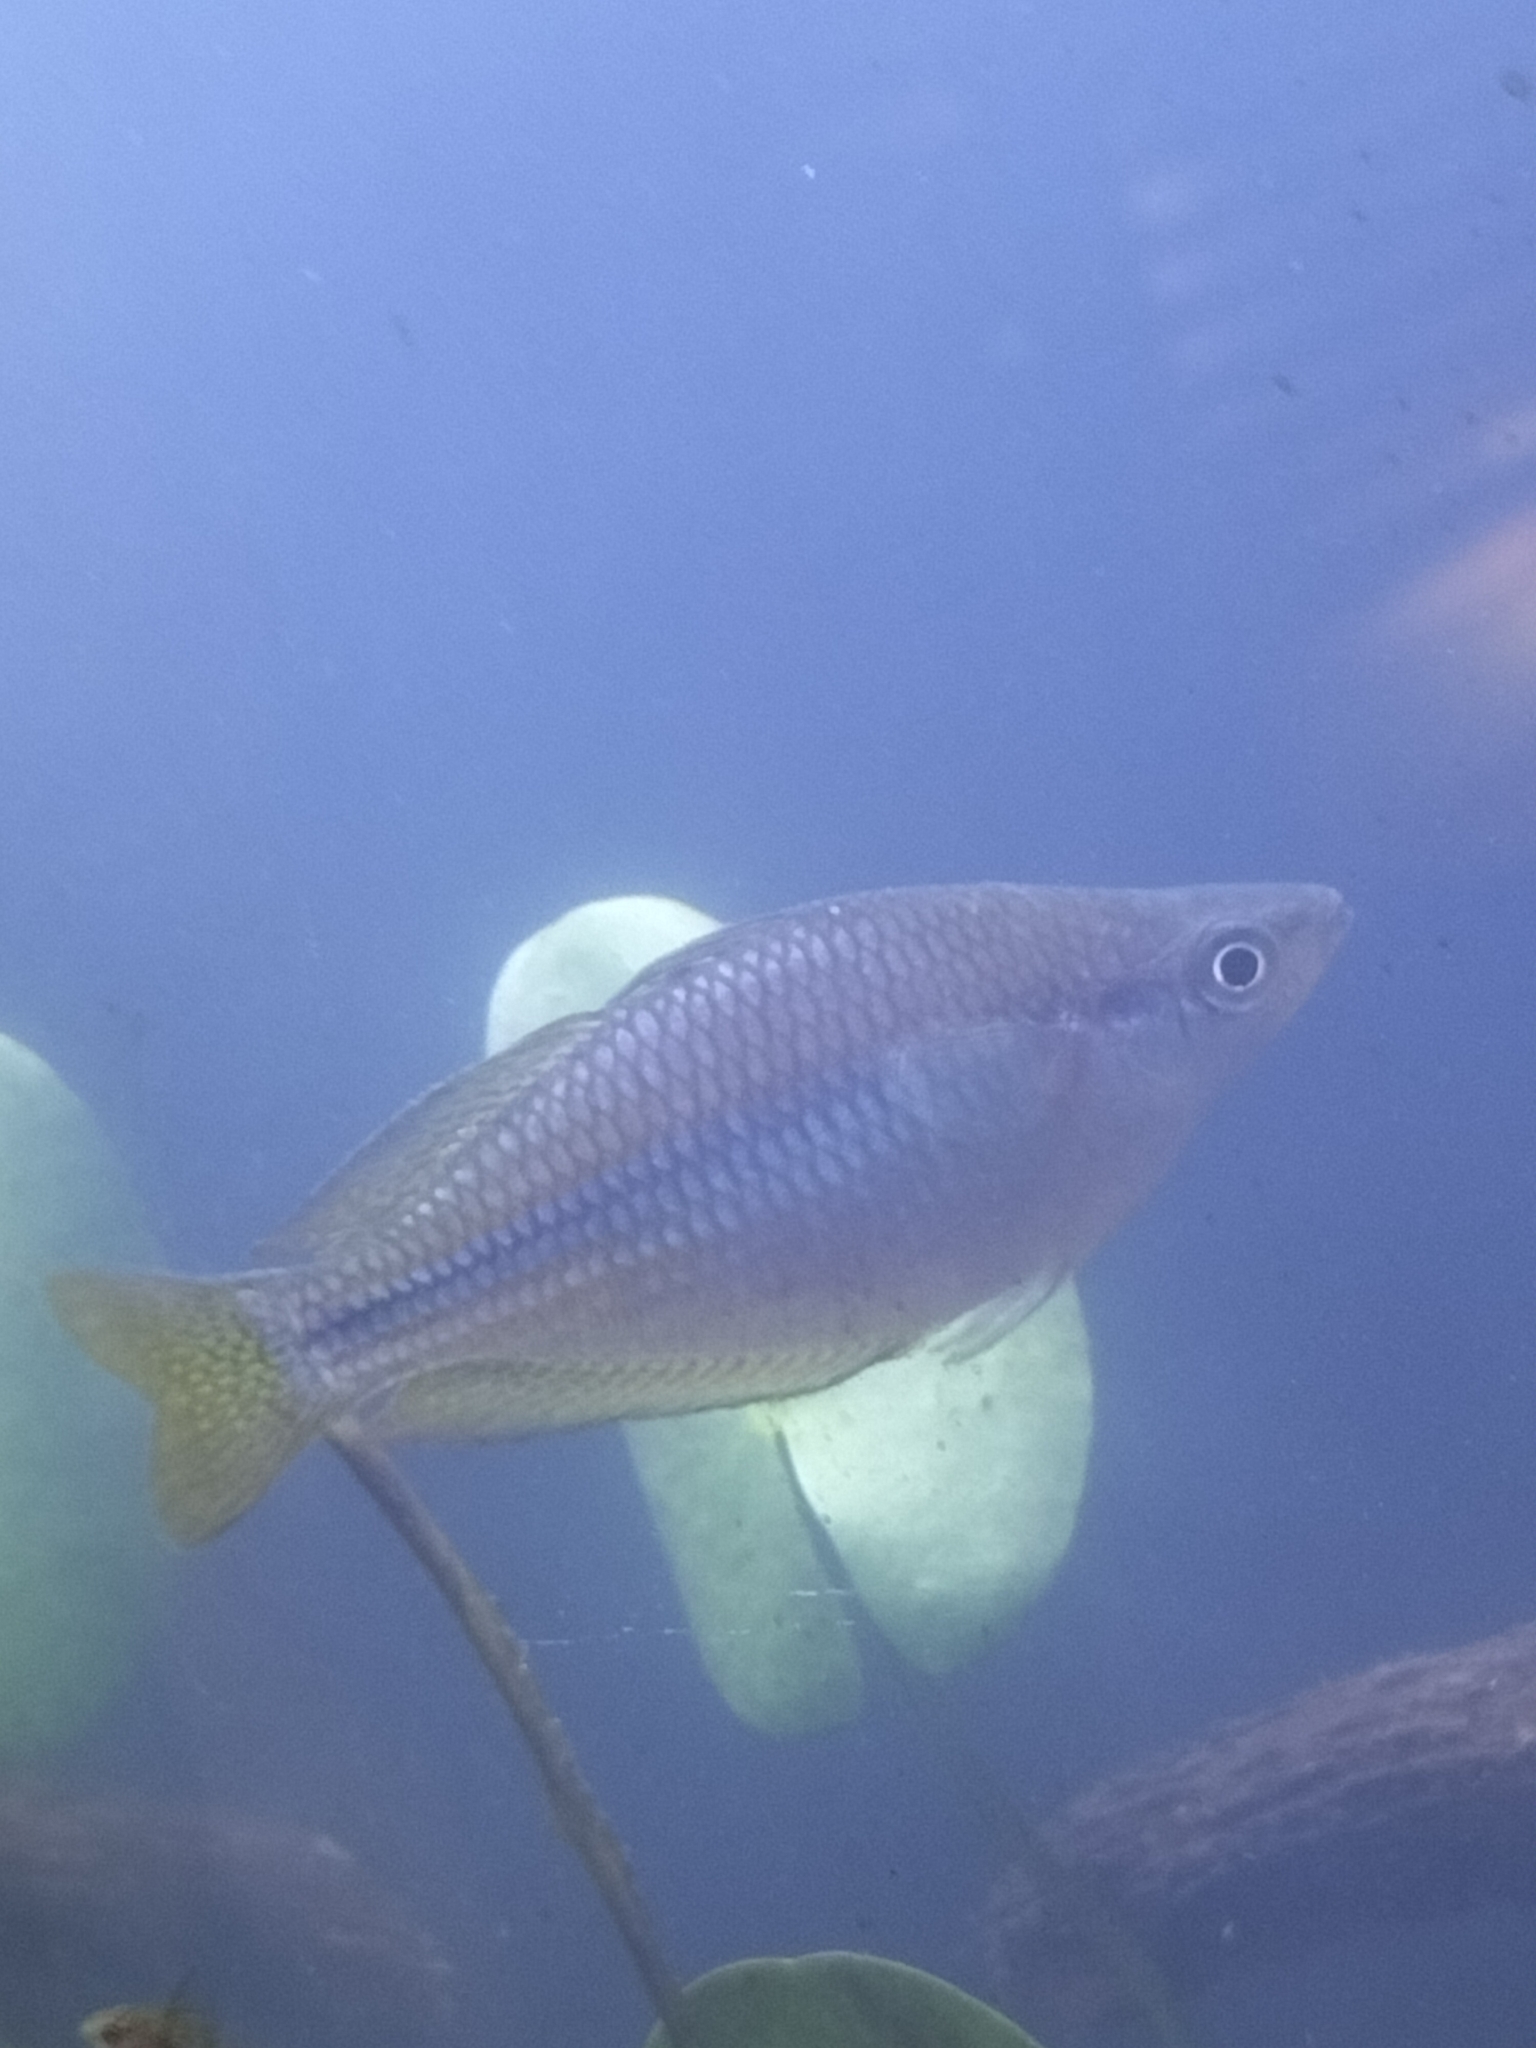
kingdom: Animalia
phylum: Chordata
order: Atheriniformes
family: Melanotaeniidae
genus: Melanotaenia
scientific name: Melanotaenia splendida
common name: Checkered rainbowfish
